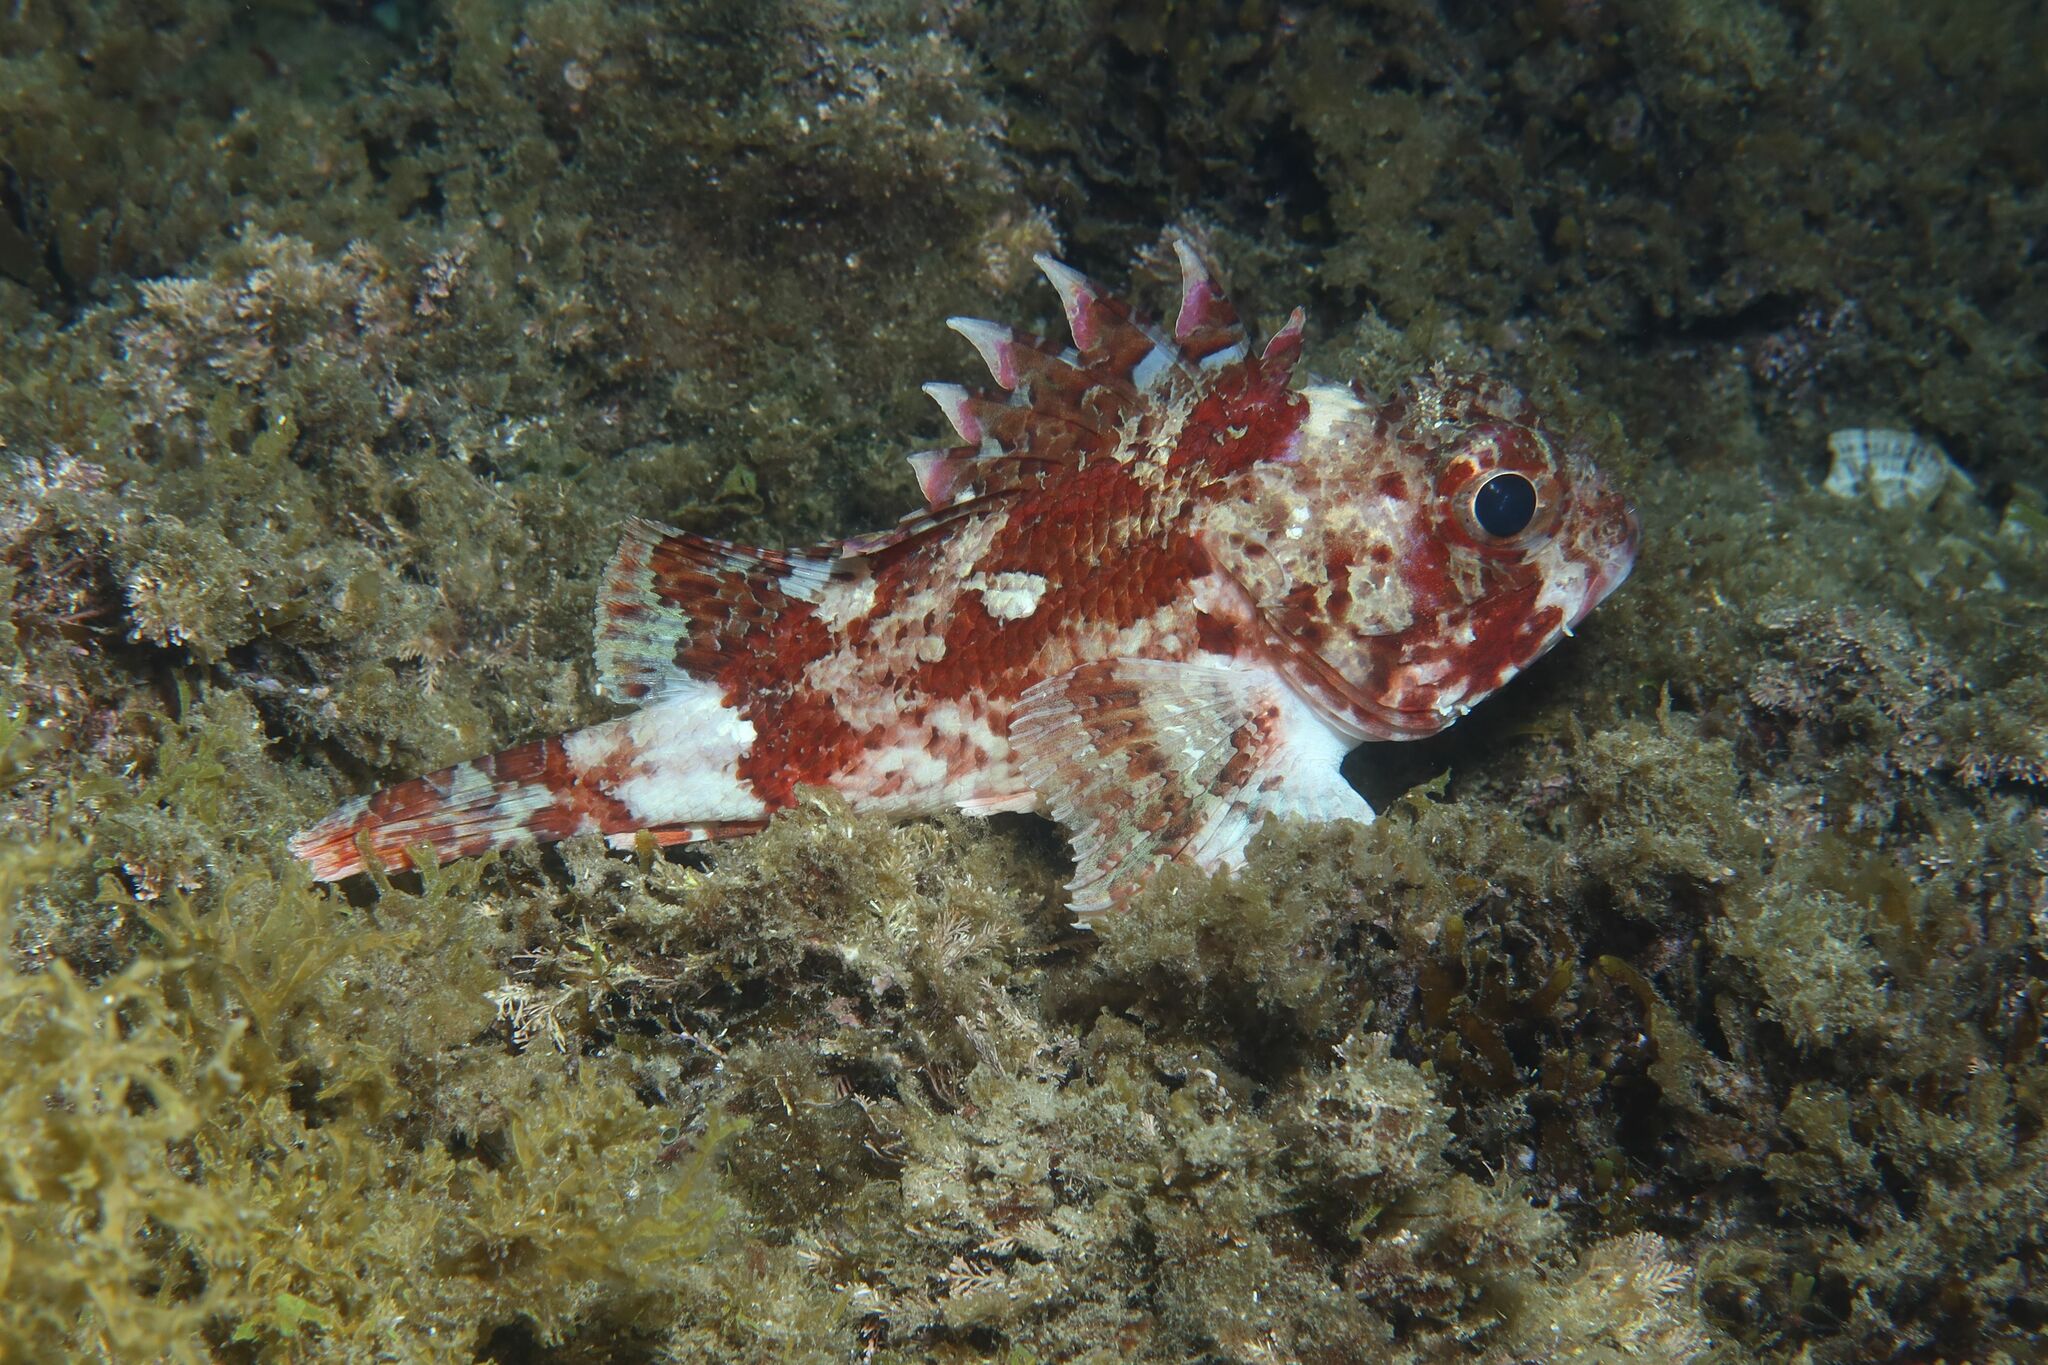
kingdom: Animalia
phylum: Chordata
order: Scorpaeniformes
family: Scorpaenidae
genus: Scorpaena
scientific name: Scorpaena notata
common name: Small red scorpionfish
